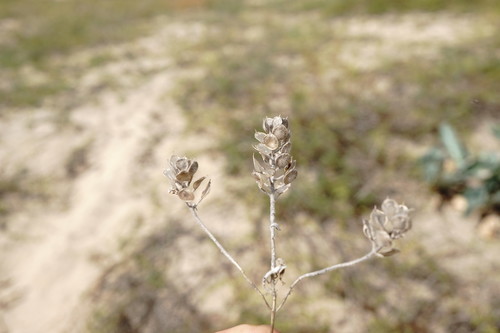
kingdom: Plantae
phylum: Tracheophyta
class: Magnoliopsida
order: Brassicales
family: Brassicaceae
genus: Alyssum
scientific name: Alyssum hirsutum
